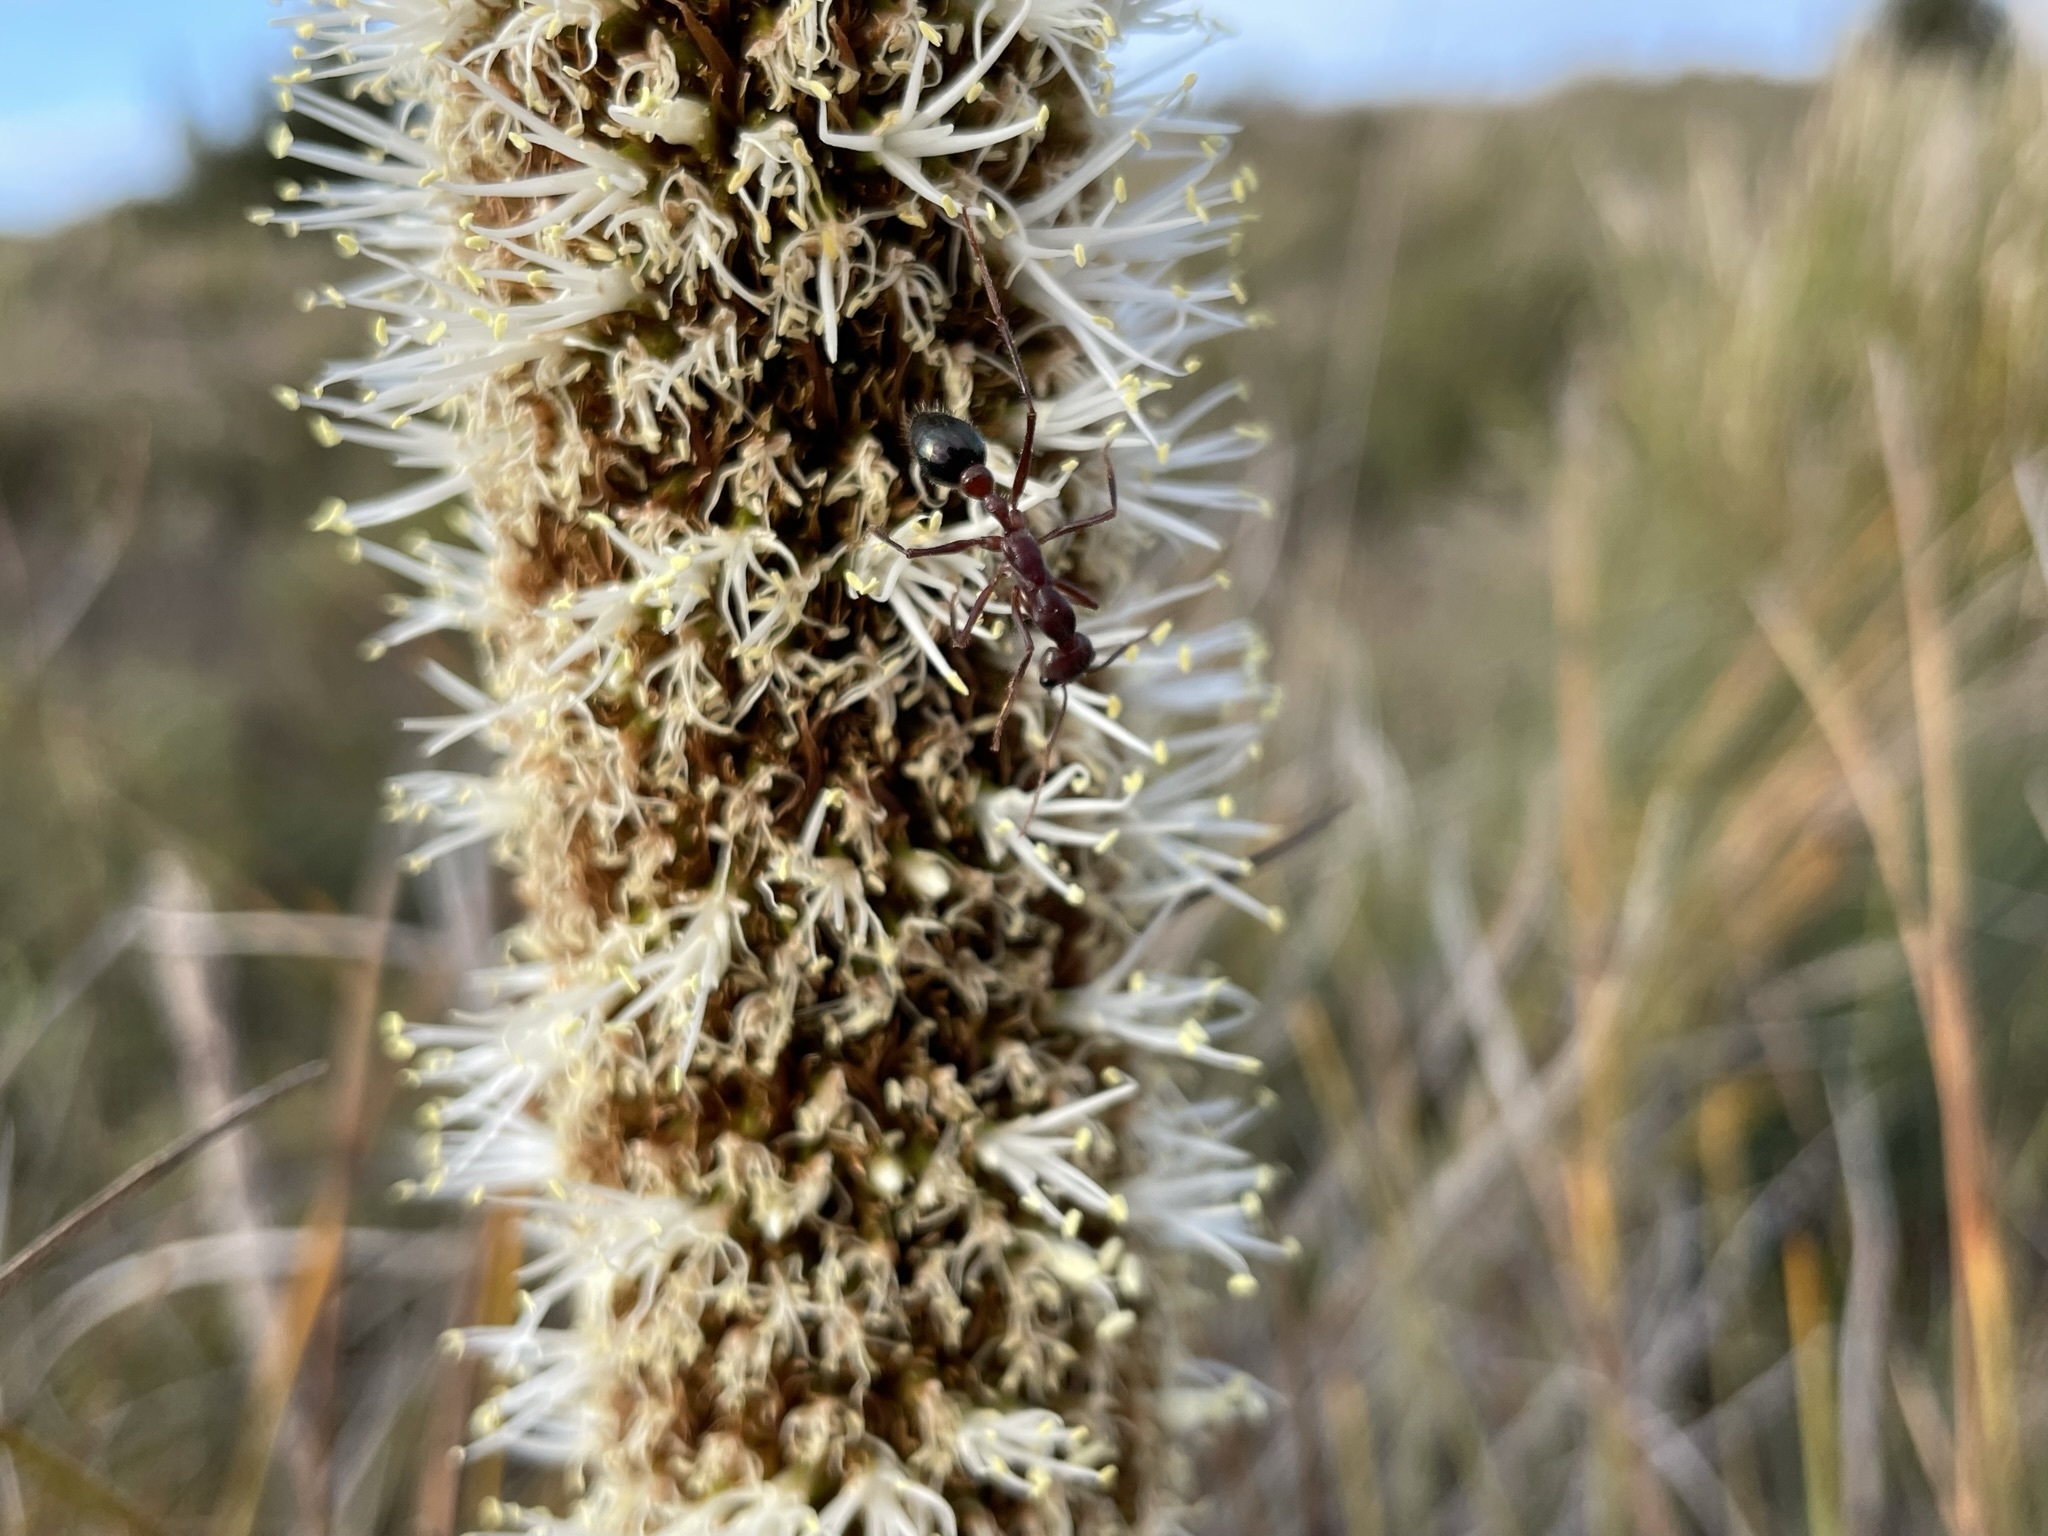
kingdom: Animalia
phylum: Arthropoda
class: Insecta
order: Hymenoptera
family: Formicidae
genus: Myrmecia
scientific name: Myrmecia forficata
